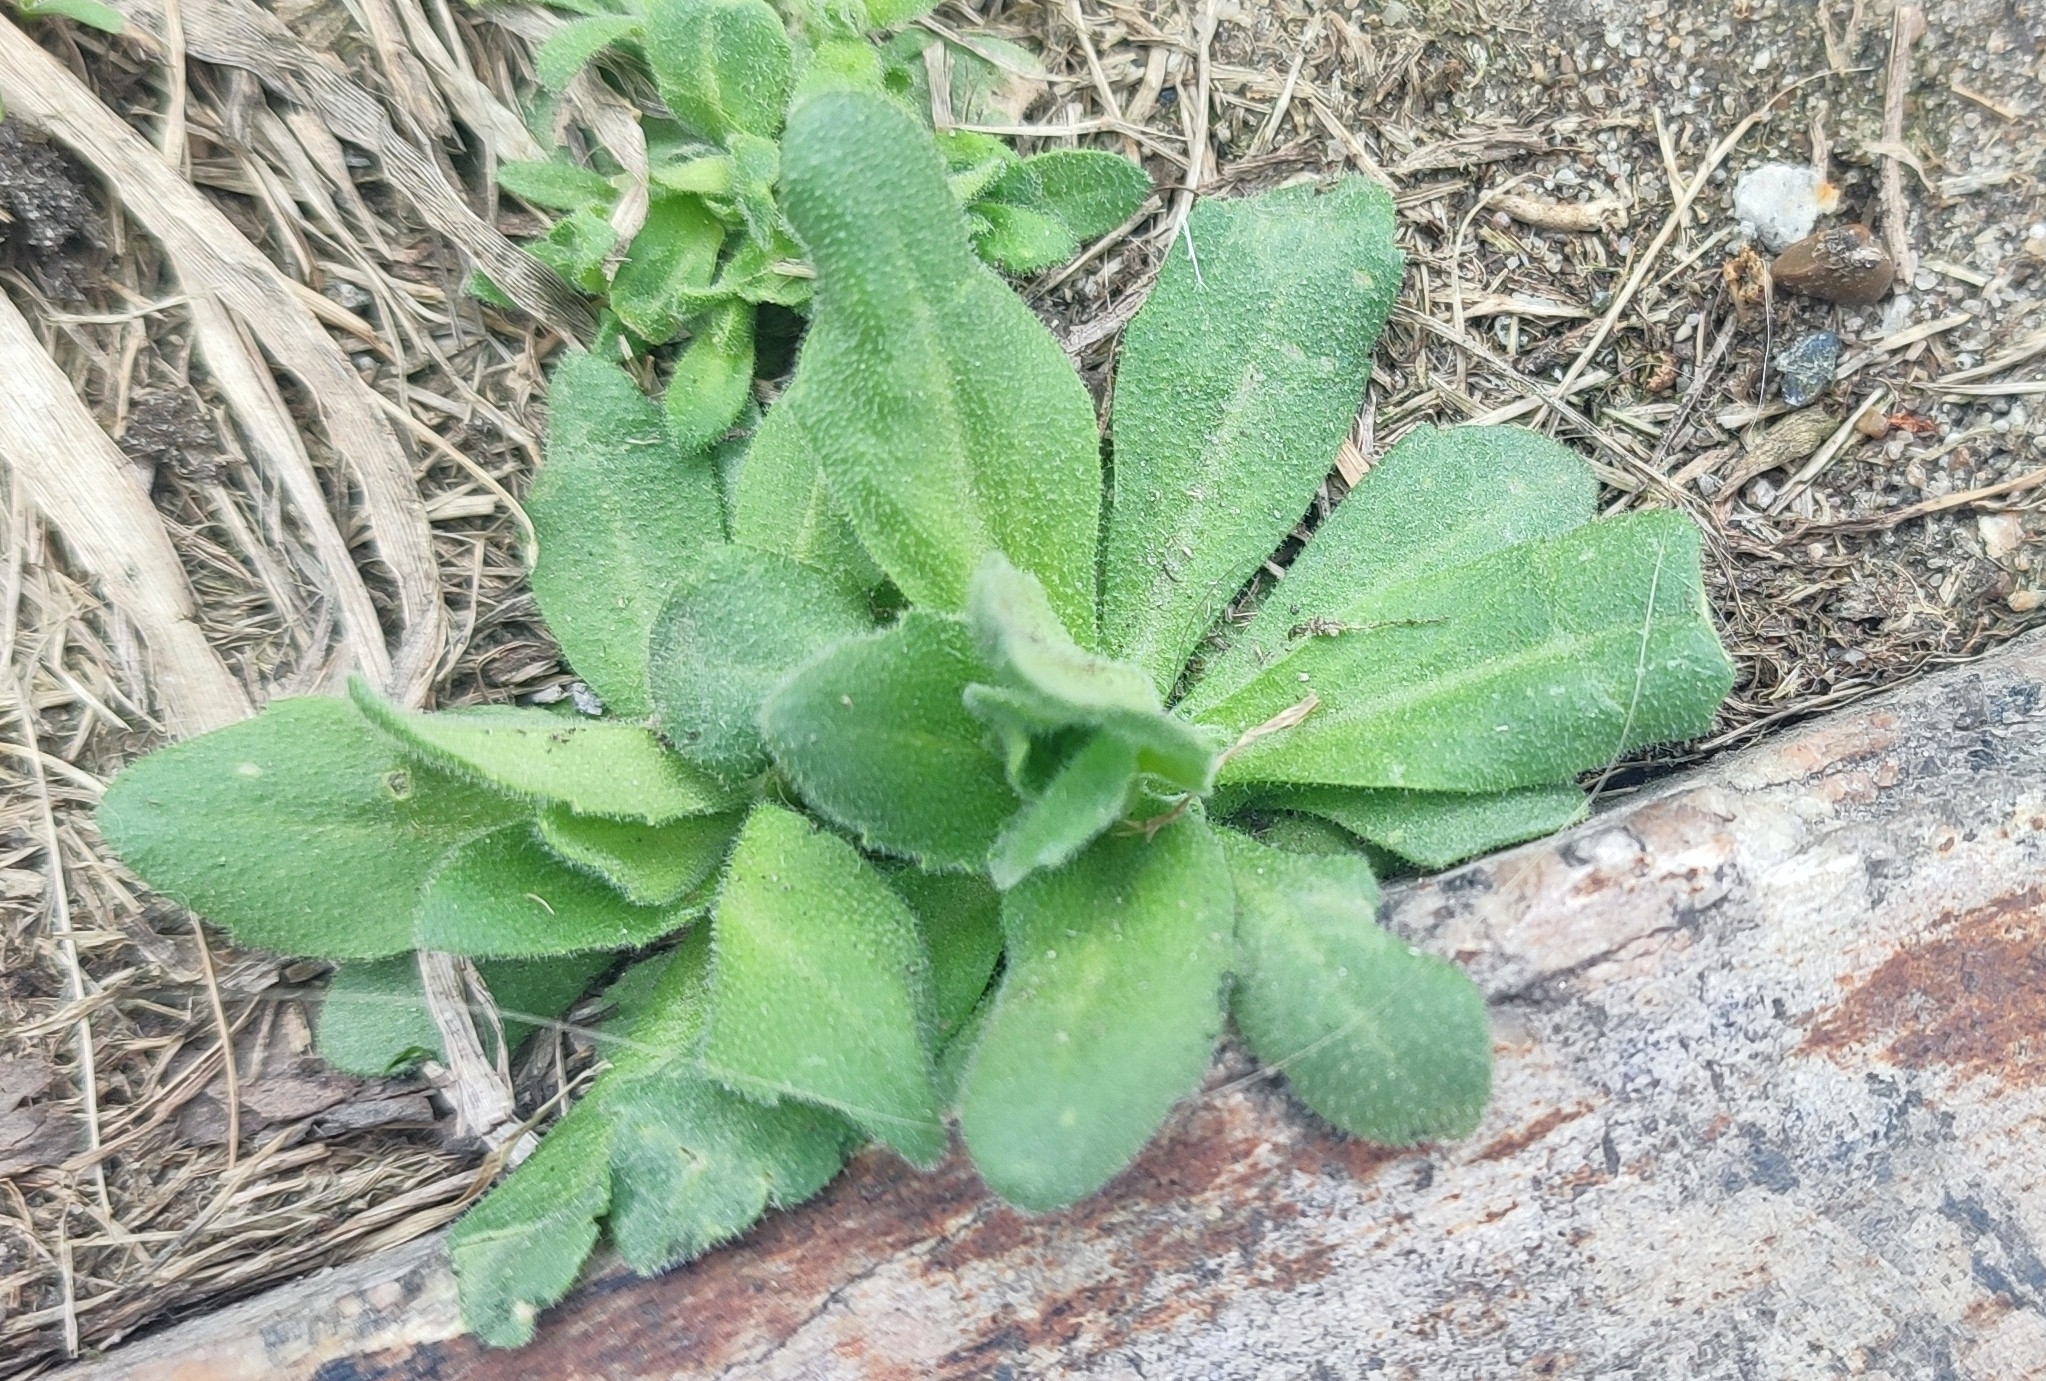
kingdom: Plantae
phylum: Tracheophyta
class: Magnoliopsida
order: Brassicales
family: Brassicaceae
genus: Draba
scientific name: Draba nemorosa
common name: Wood whitlow-grass
